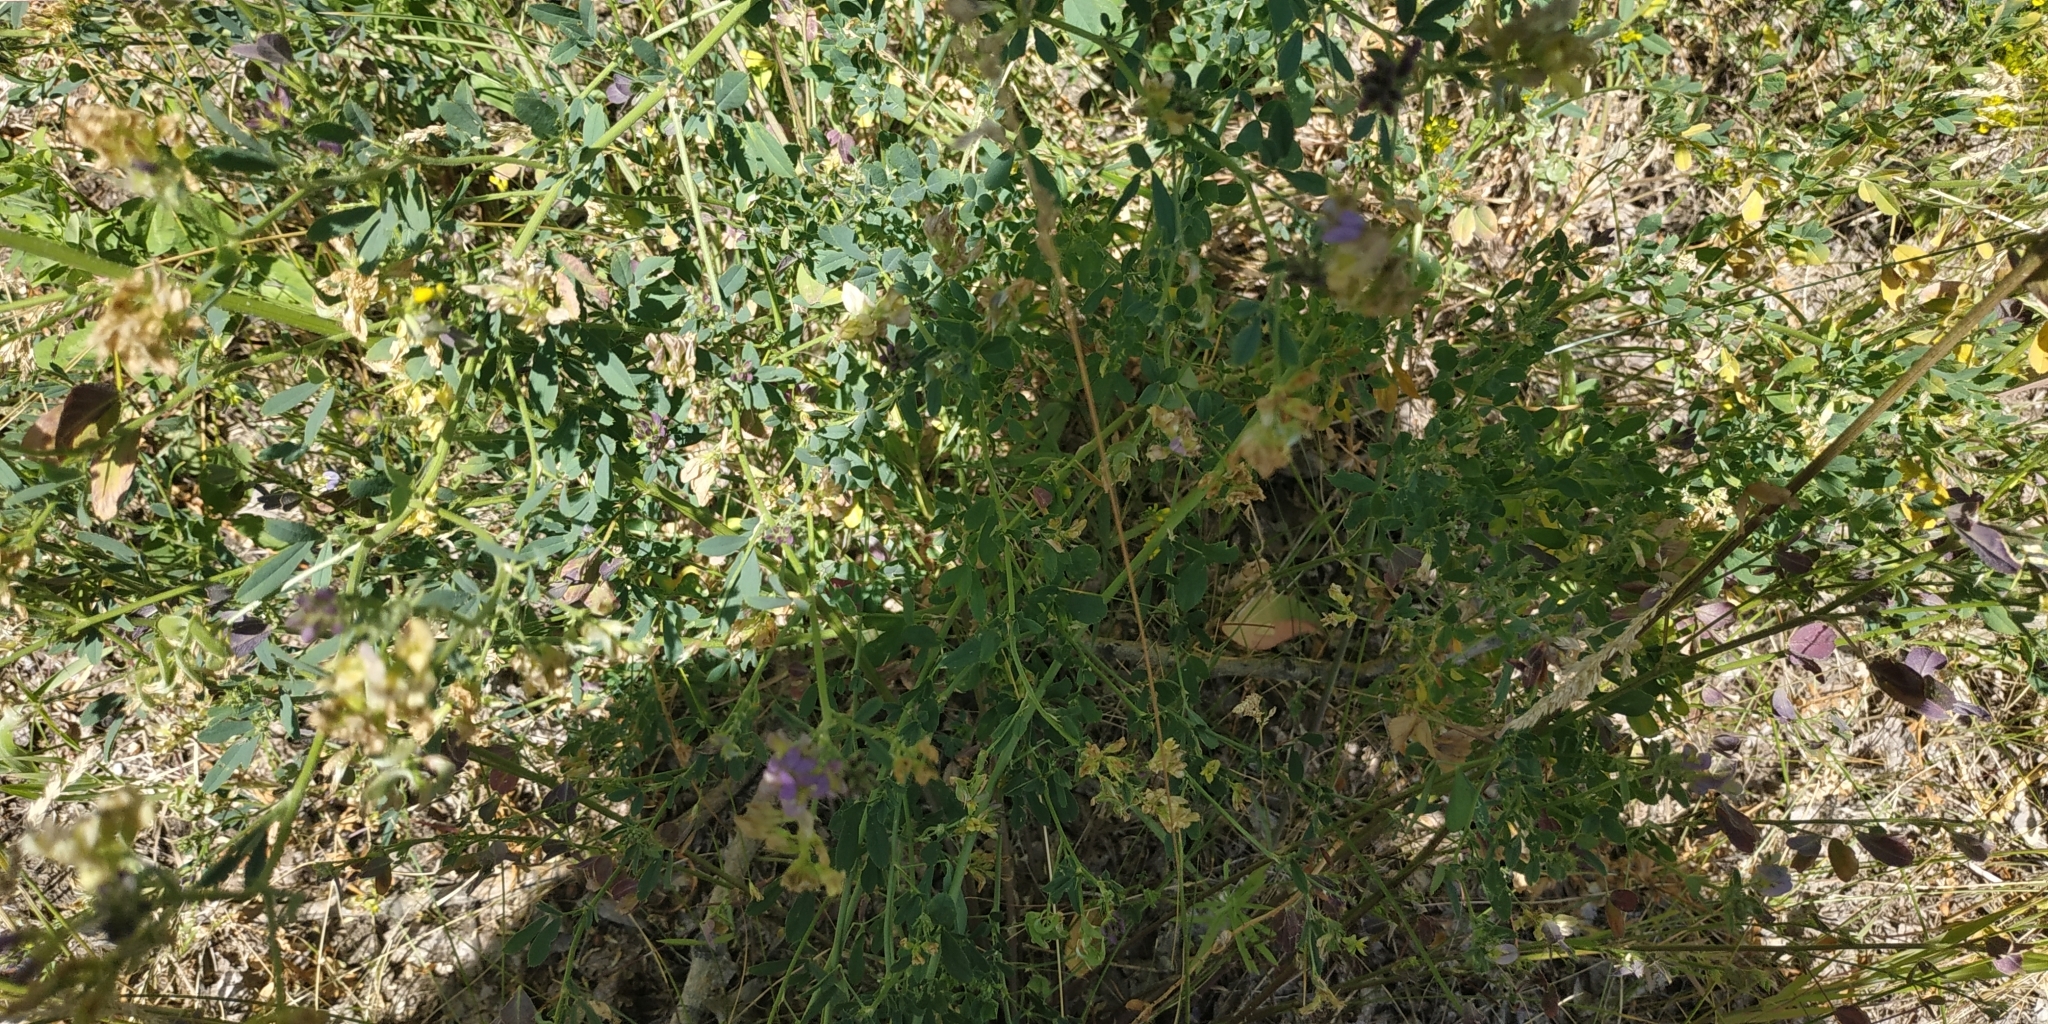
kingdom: Plantae
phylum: Tracheophyta
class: Magnoliopsida
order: Fabales
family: Fabaceae
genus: Medicago
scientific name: Medicago varia
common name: Sand lucerne
